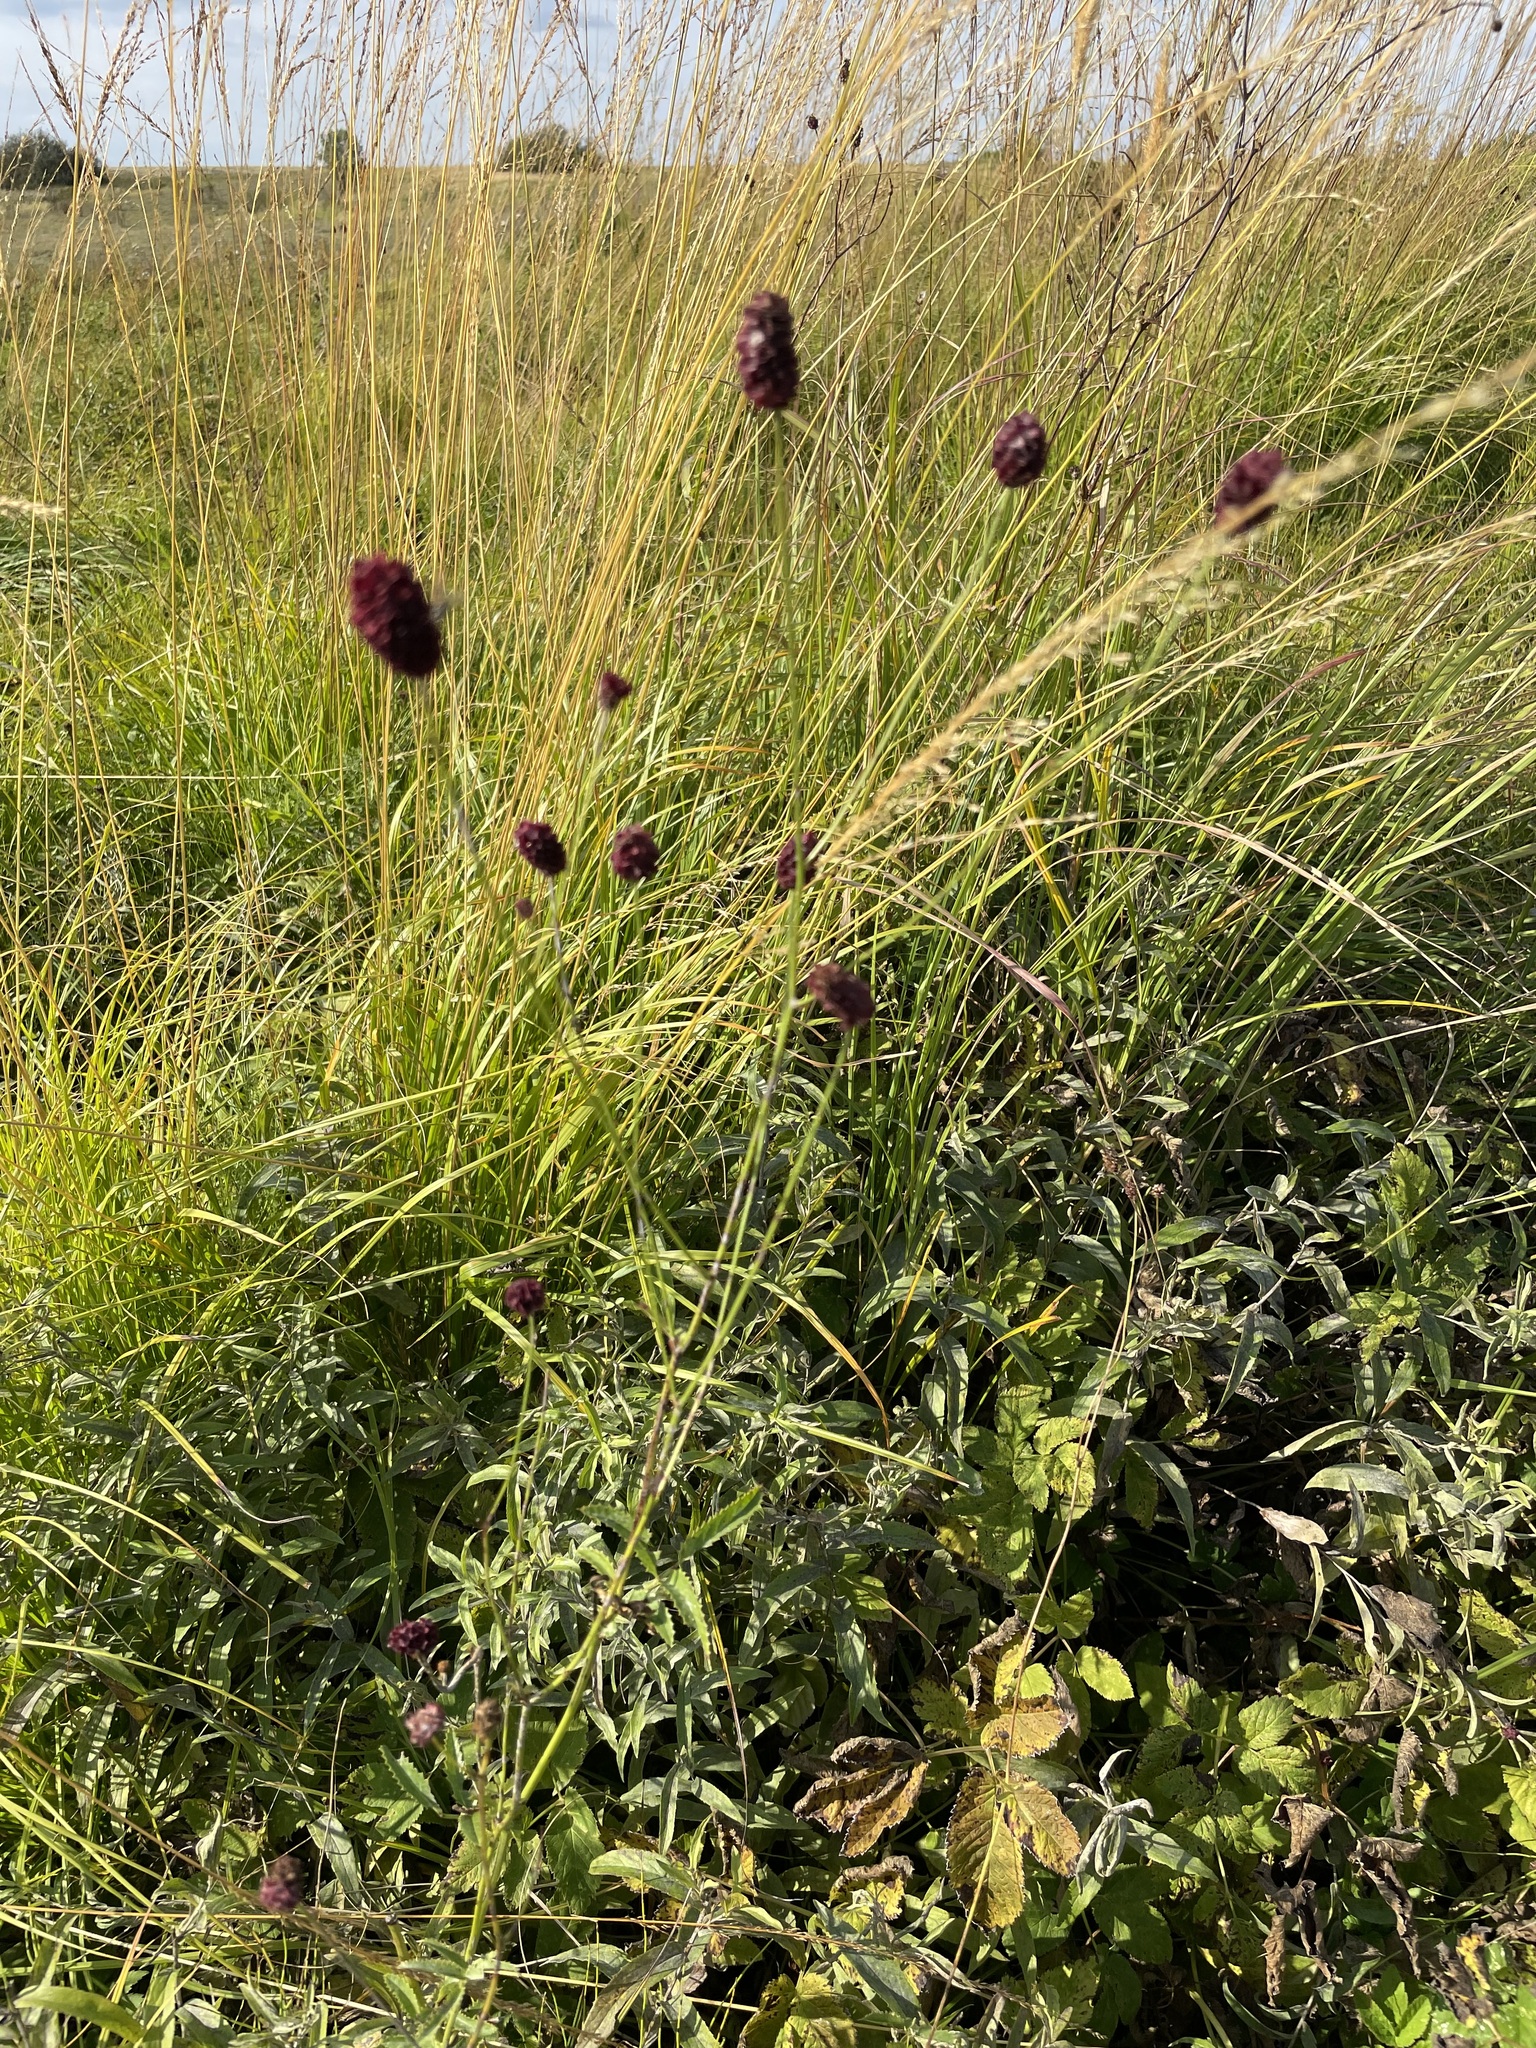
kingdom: Plantae
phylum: Tracheophyta
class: Magnoliopsida
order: Rosales
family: Rosaceae
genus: Sanguisorba
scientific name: Sanguisorba officinalis
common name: Great burnet
